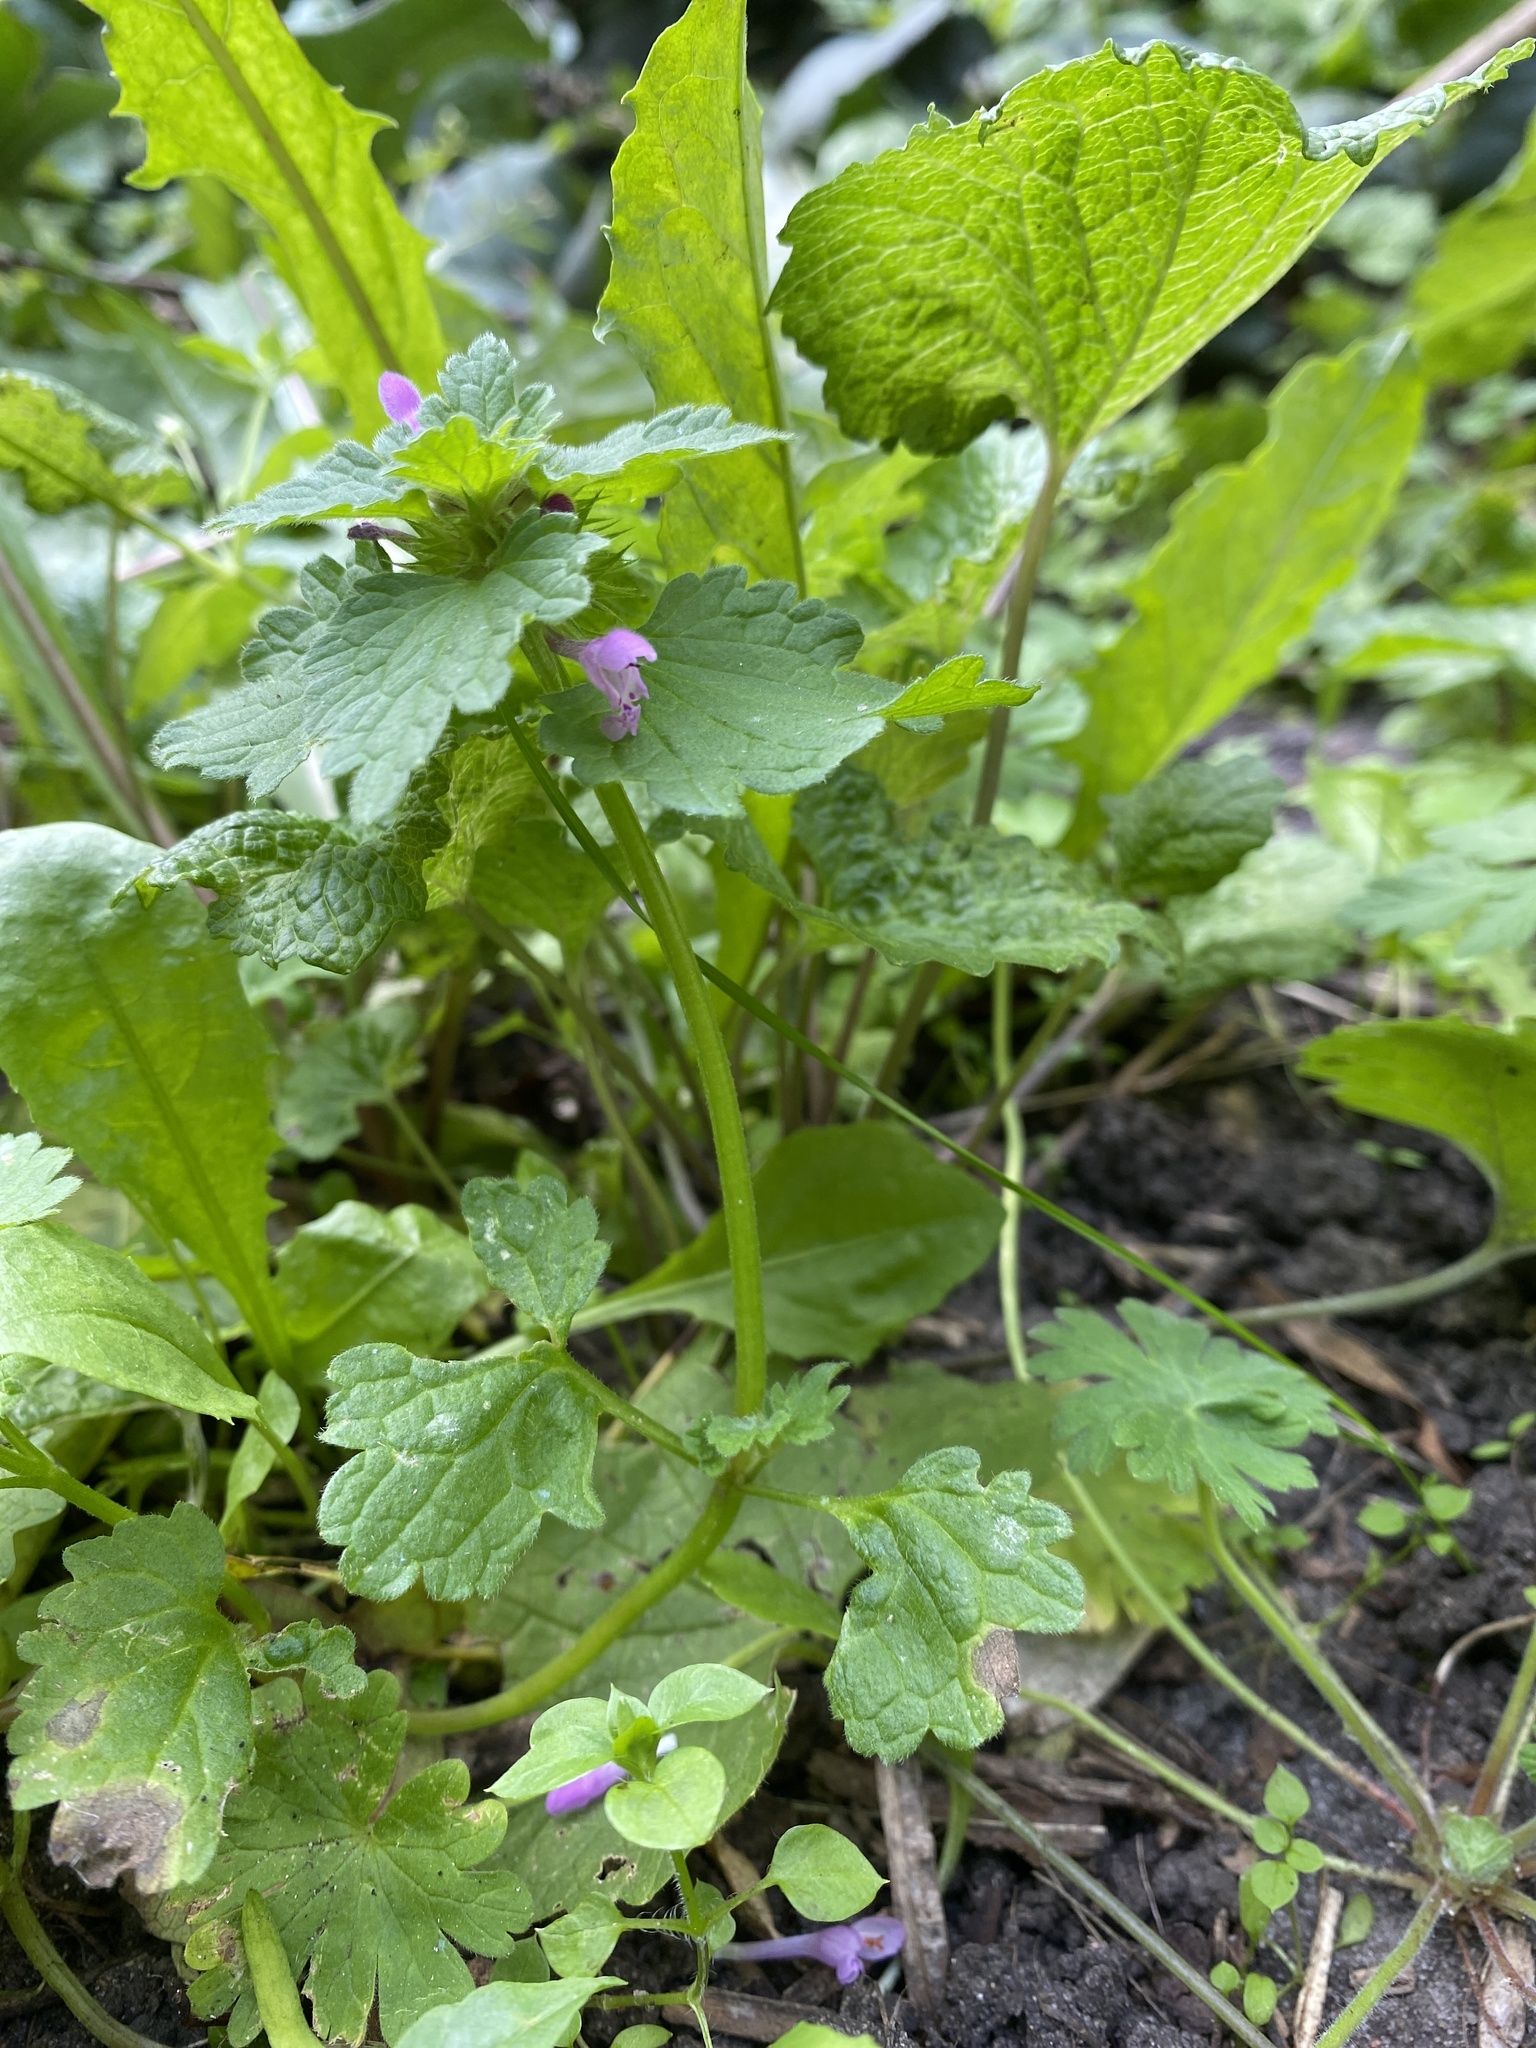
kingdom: Plantae
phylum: Tracheophyta
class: Magnoliopsida
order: Lamiales
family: Lamiaceae
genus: Lamium
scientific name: Lamium purpureum
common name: Red dead-nettle
